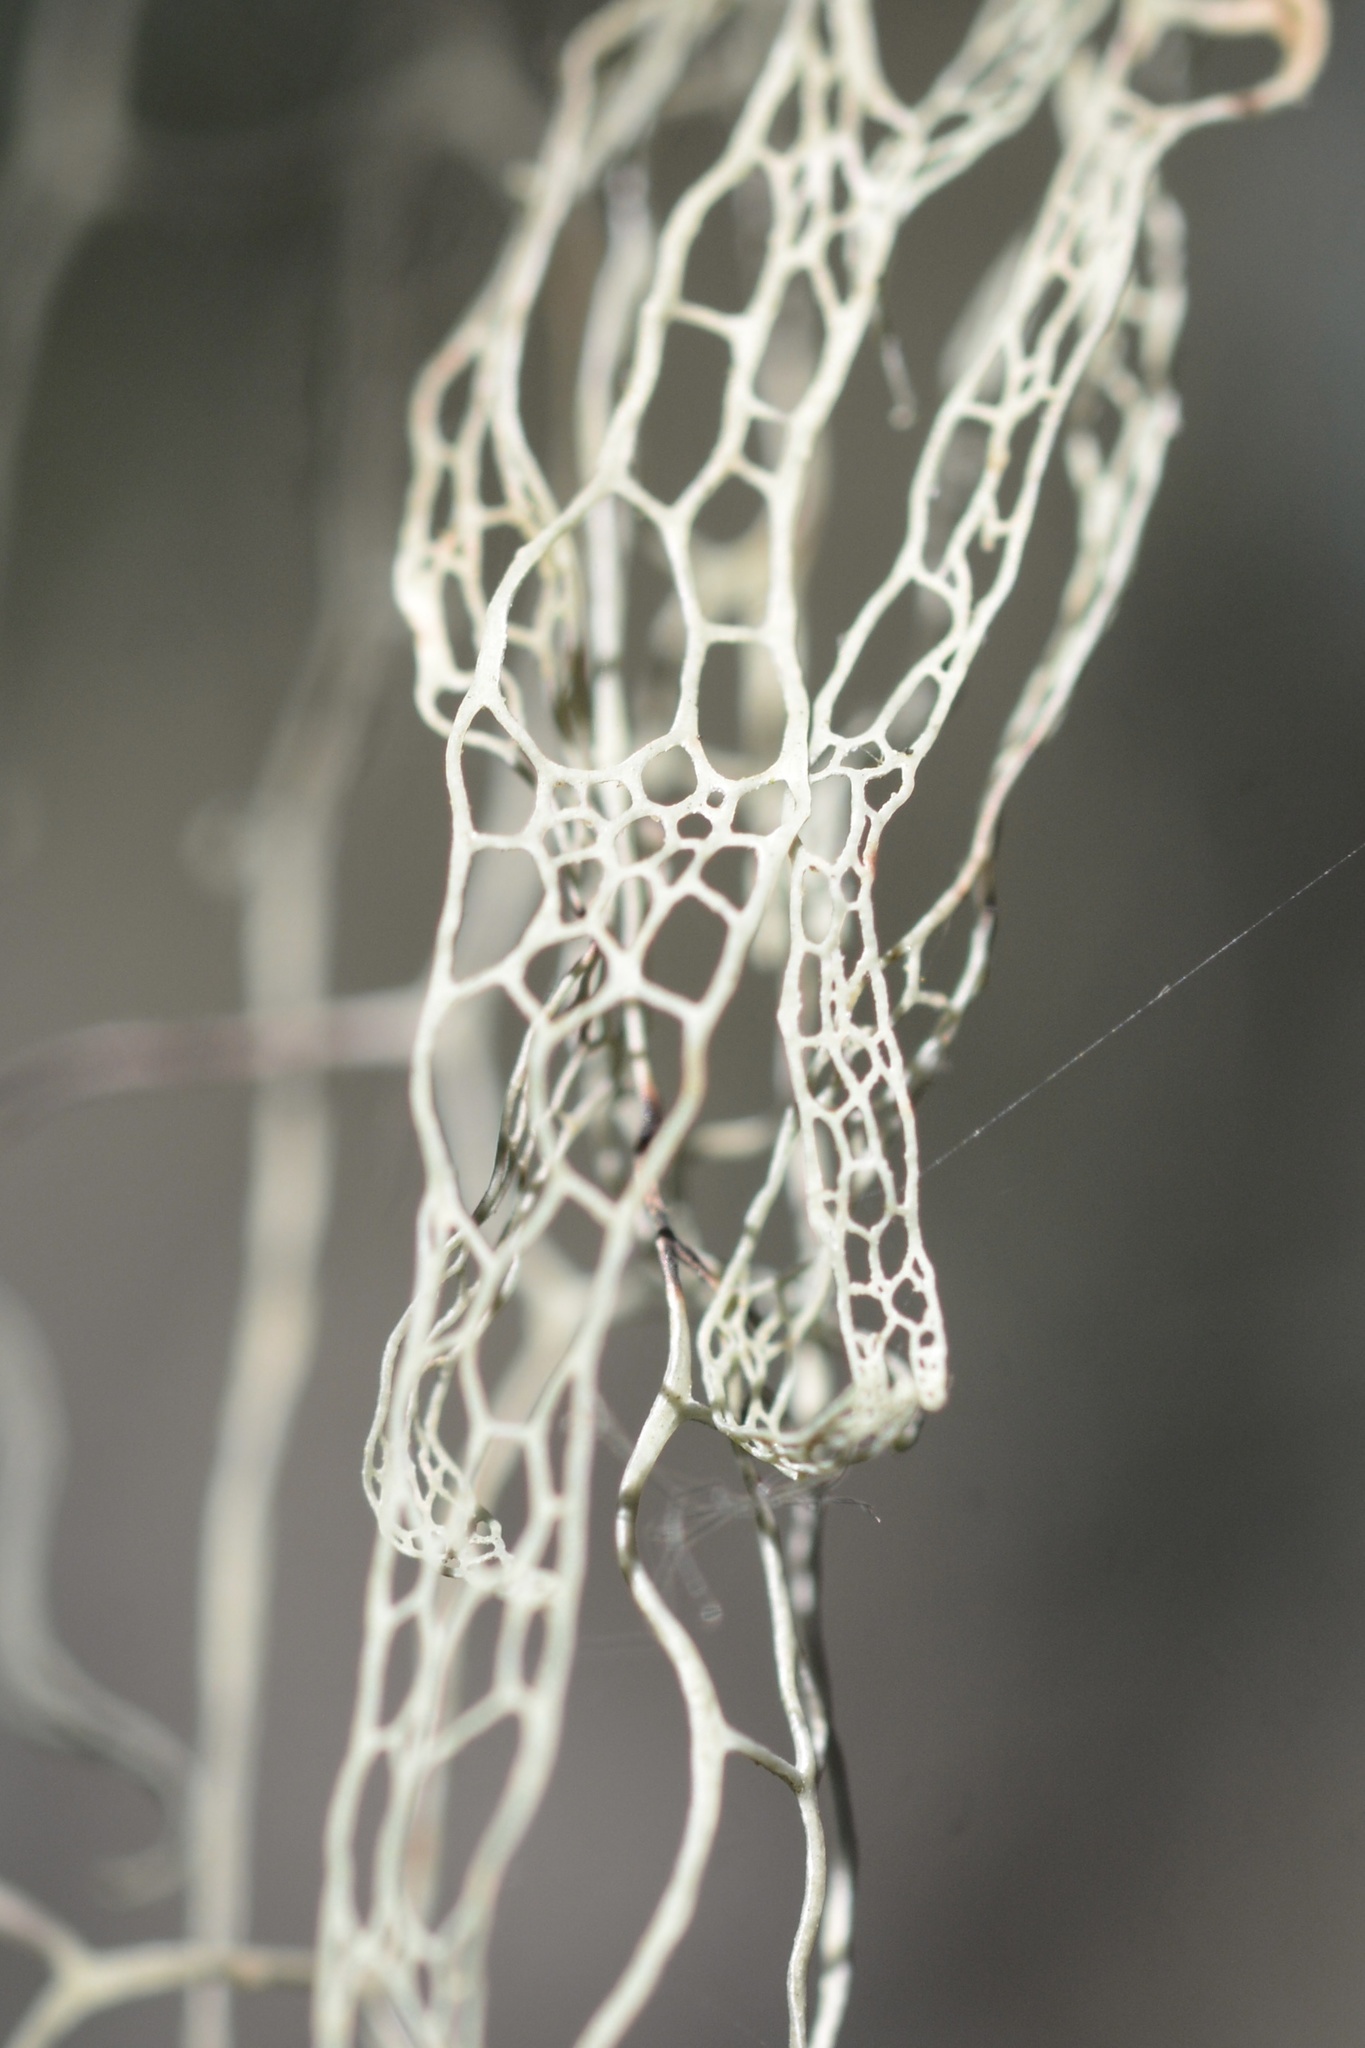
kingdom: Fungi
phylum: Ascomycota
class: Lecanoromycetes
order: Lecanorales
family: Ramalinaceae
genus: Ramalina
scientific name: Ramalina menziesii
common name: Lace lichen
